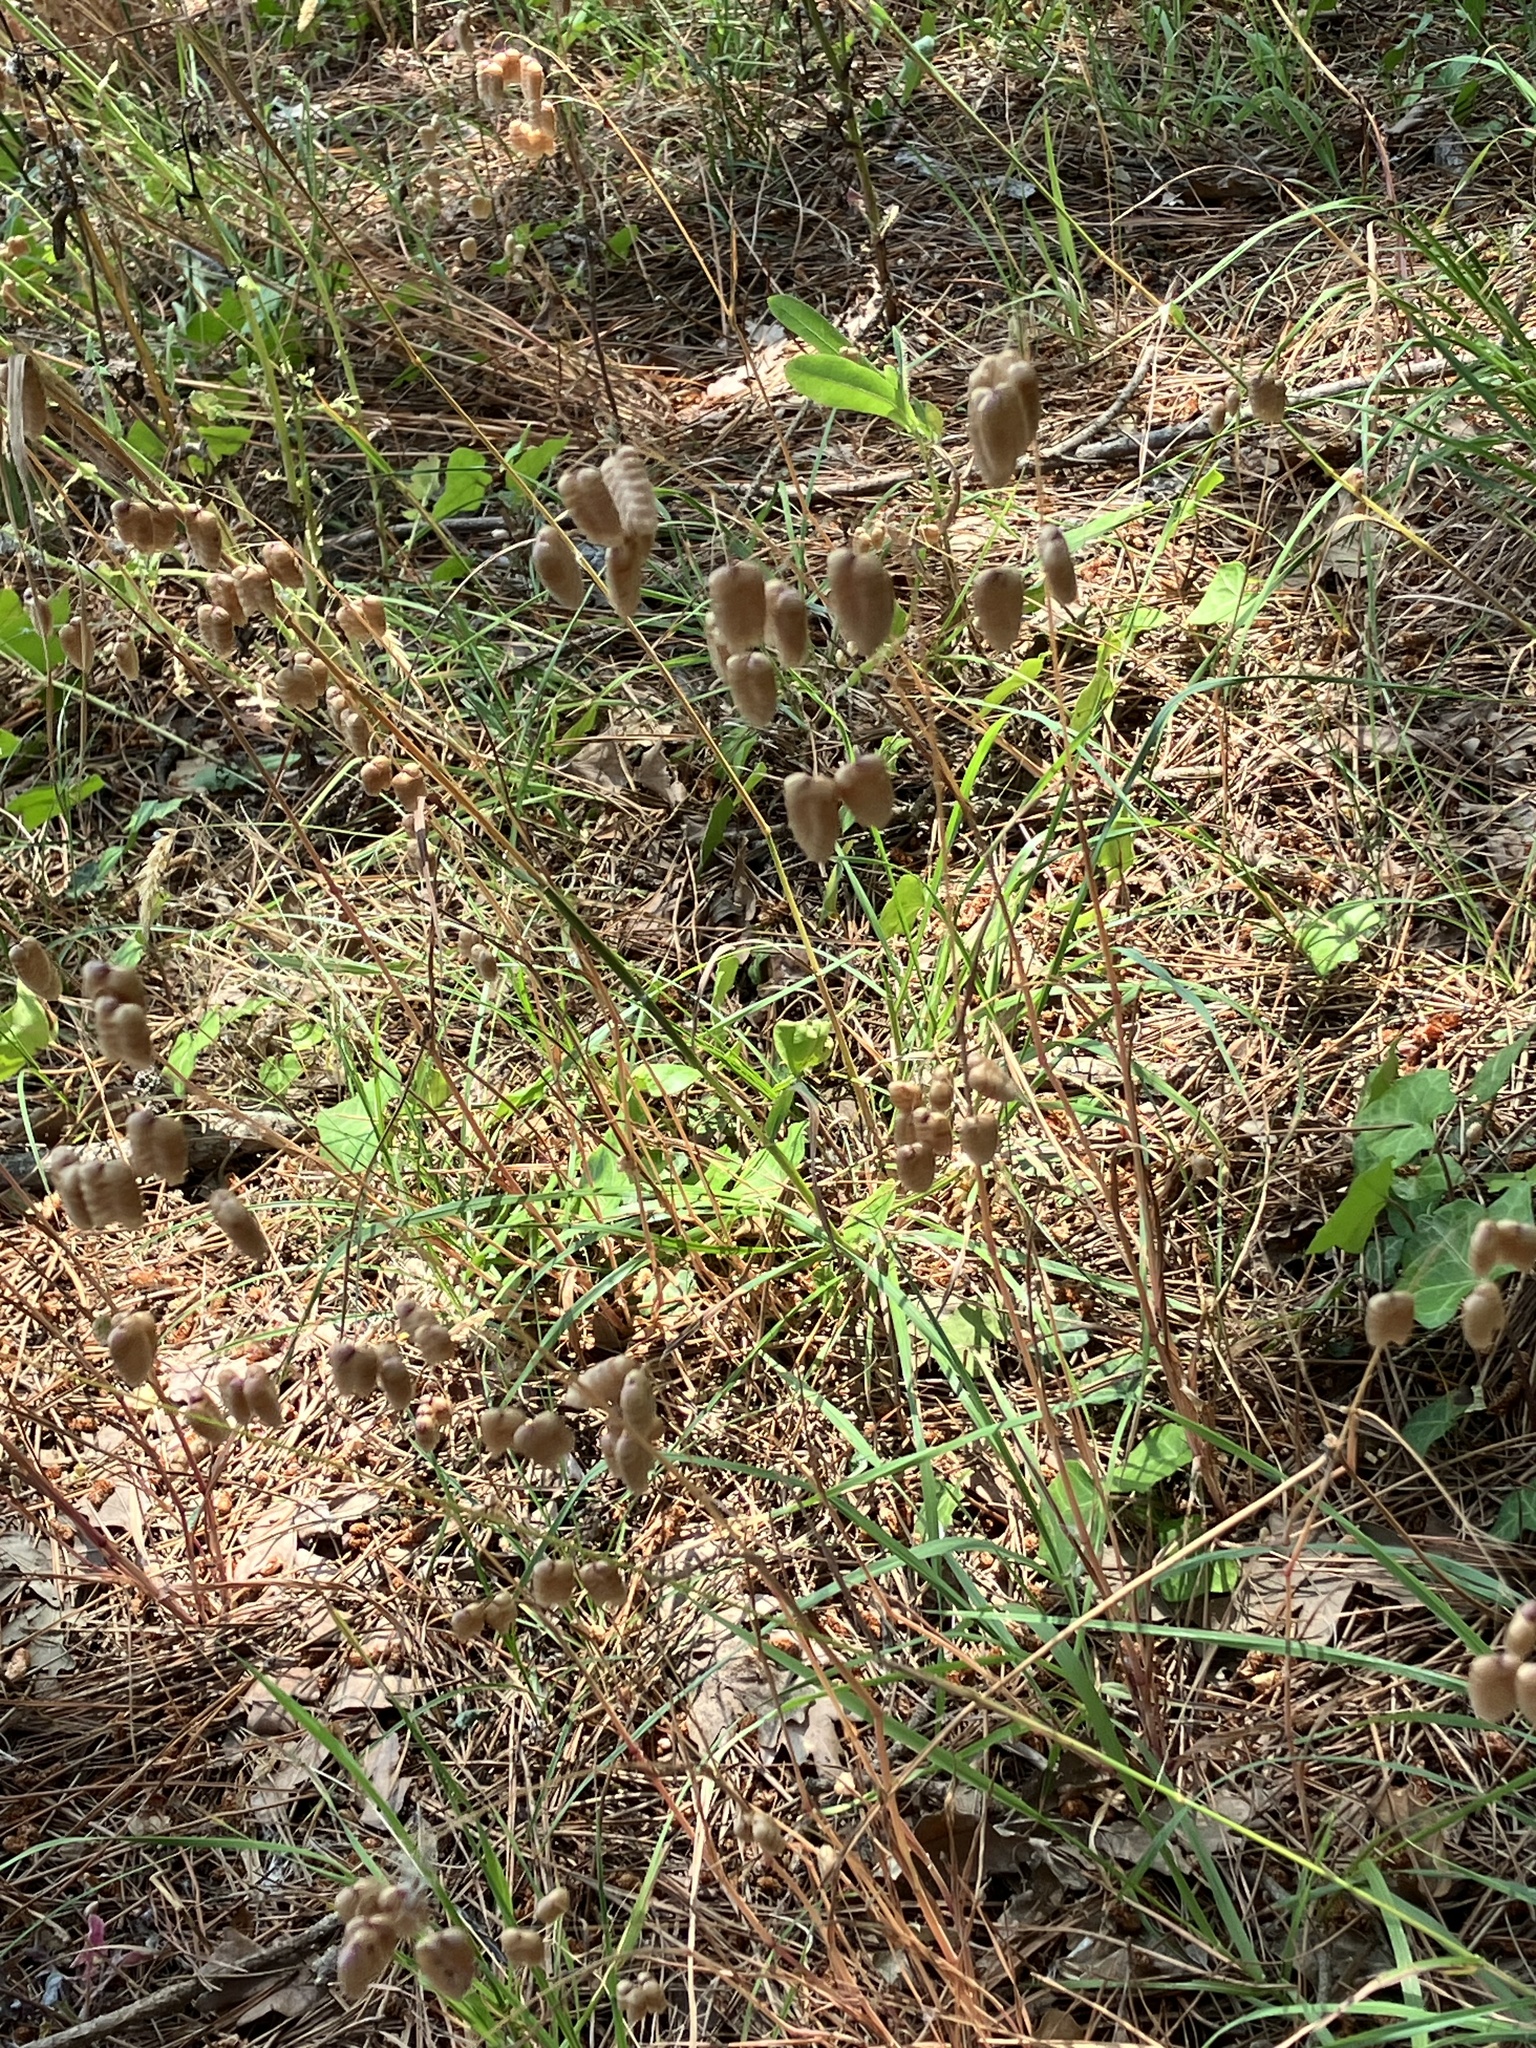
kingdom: Plantae
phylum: Tracheophyta
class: Liliopsida
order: Poales
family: Poaceae
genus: Briza
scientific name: Briza maxima
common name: Big quakinggrass
